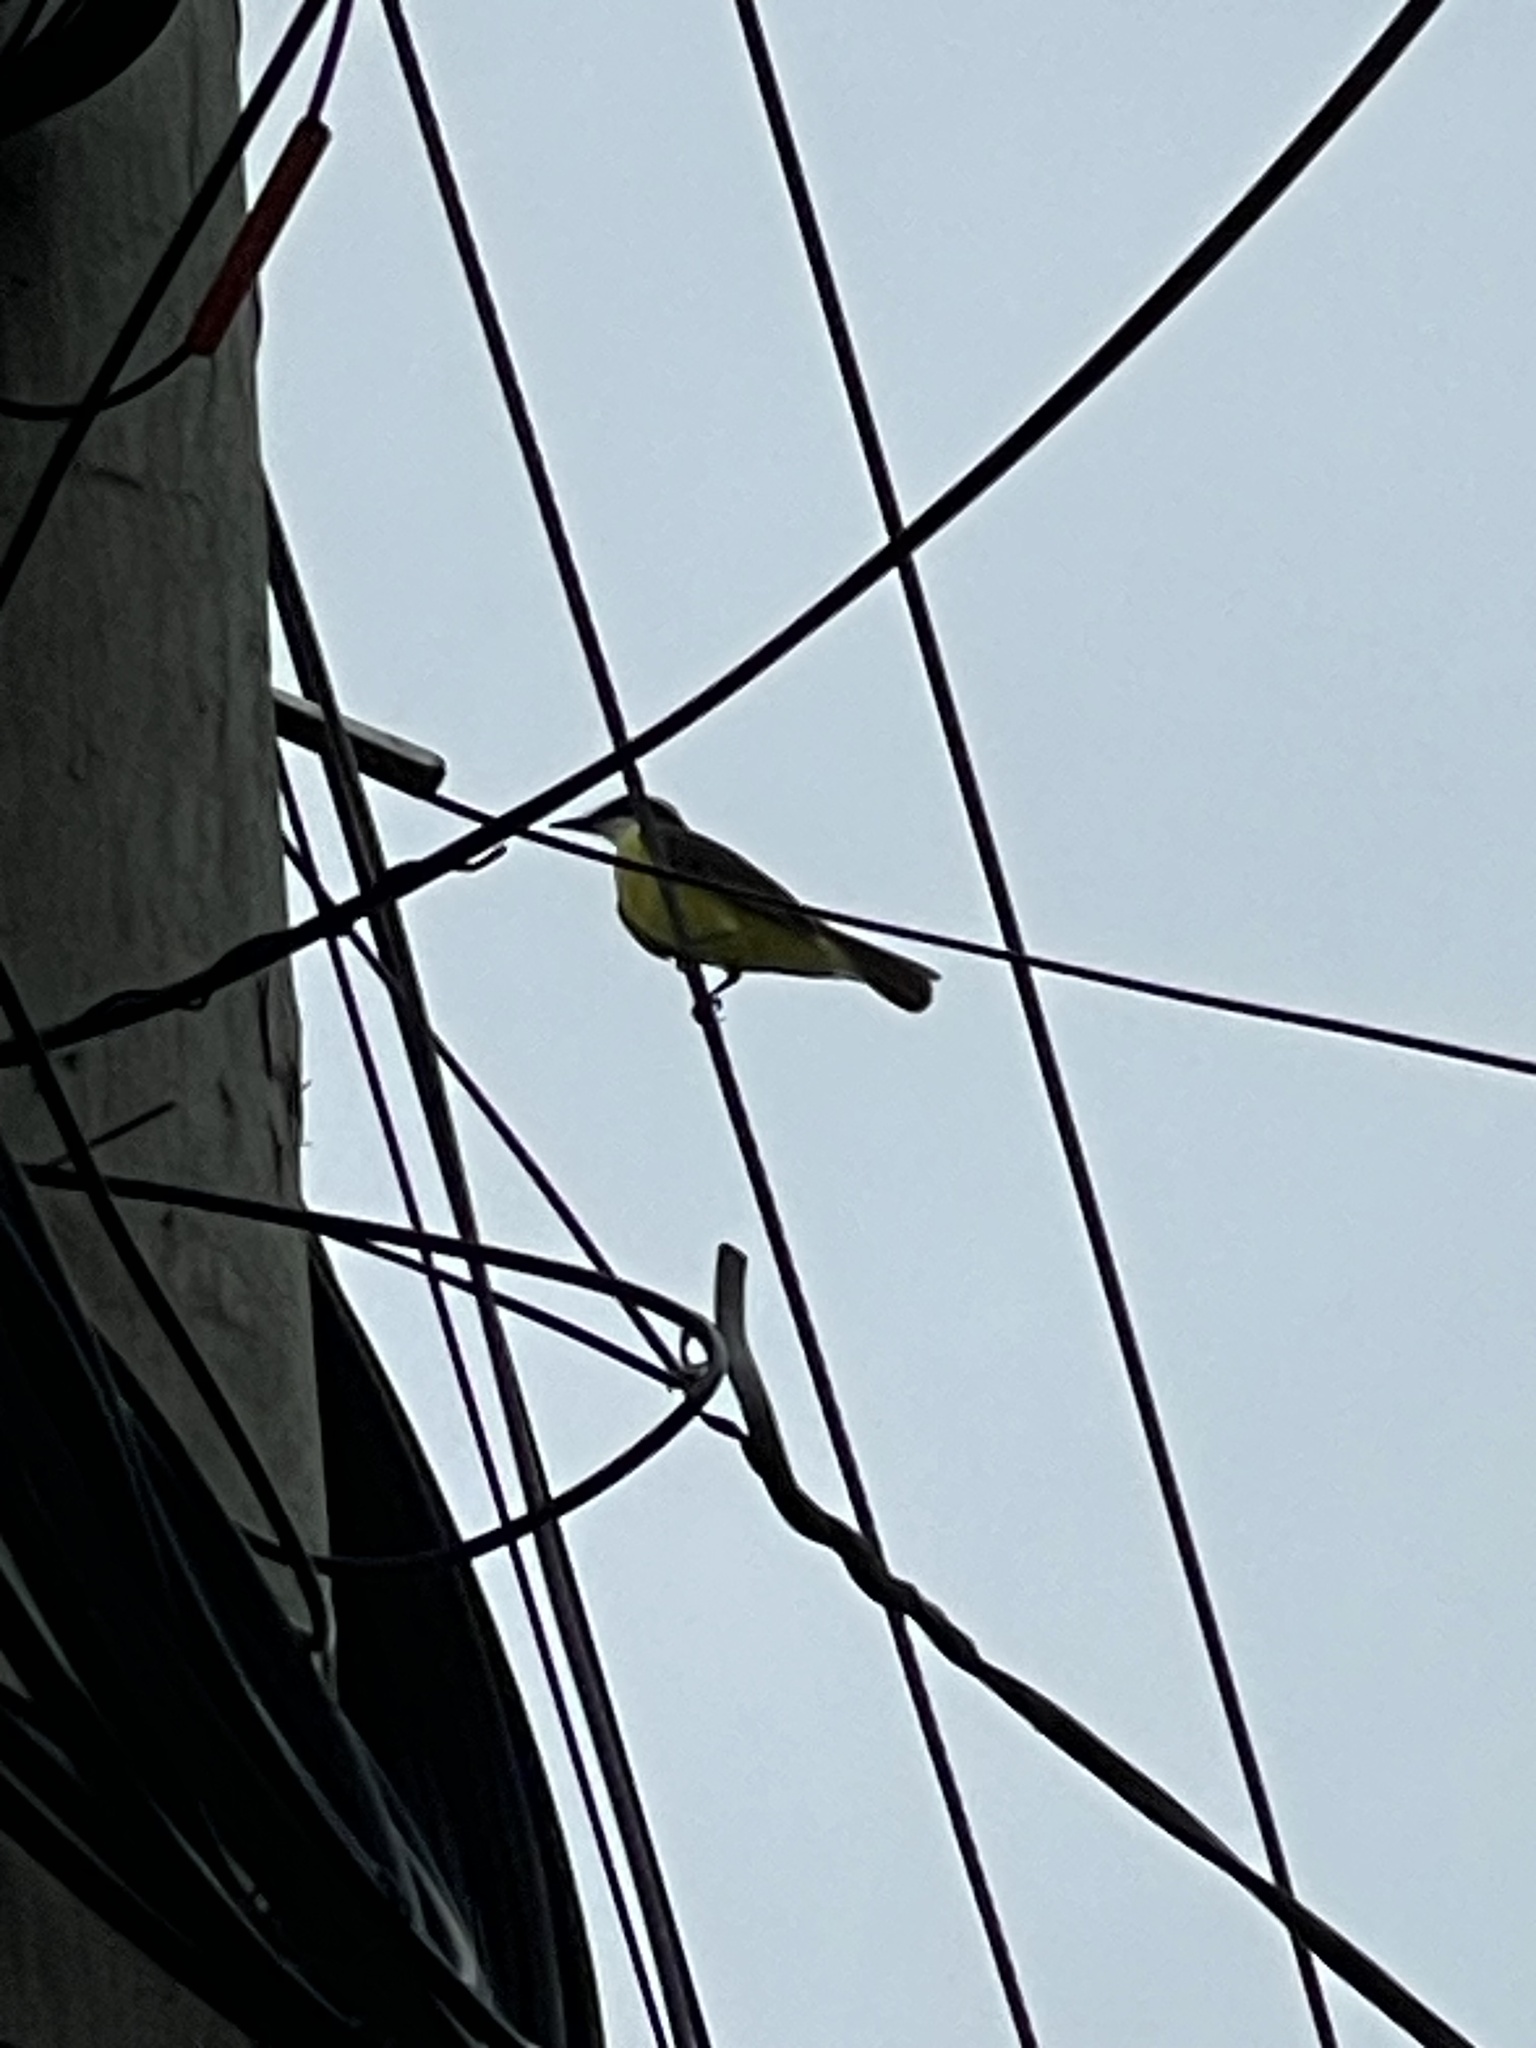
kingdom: Animalia
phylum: Chordata
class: Aves
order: Passeriformes
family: Tyrannidae
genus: Pitangus
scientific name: Pitangus sulphuratus
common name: Great kiskadee
